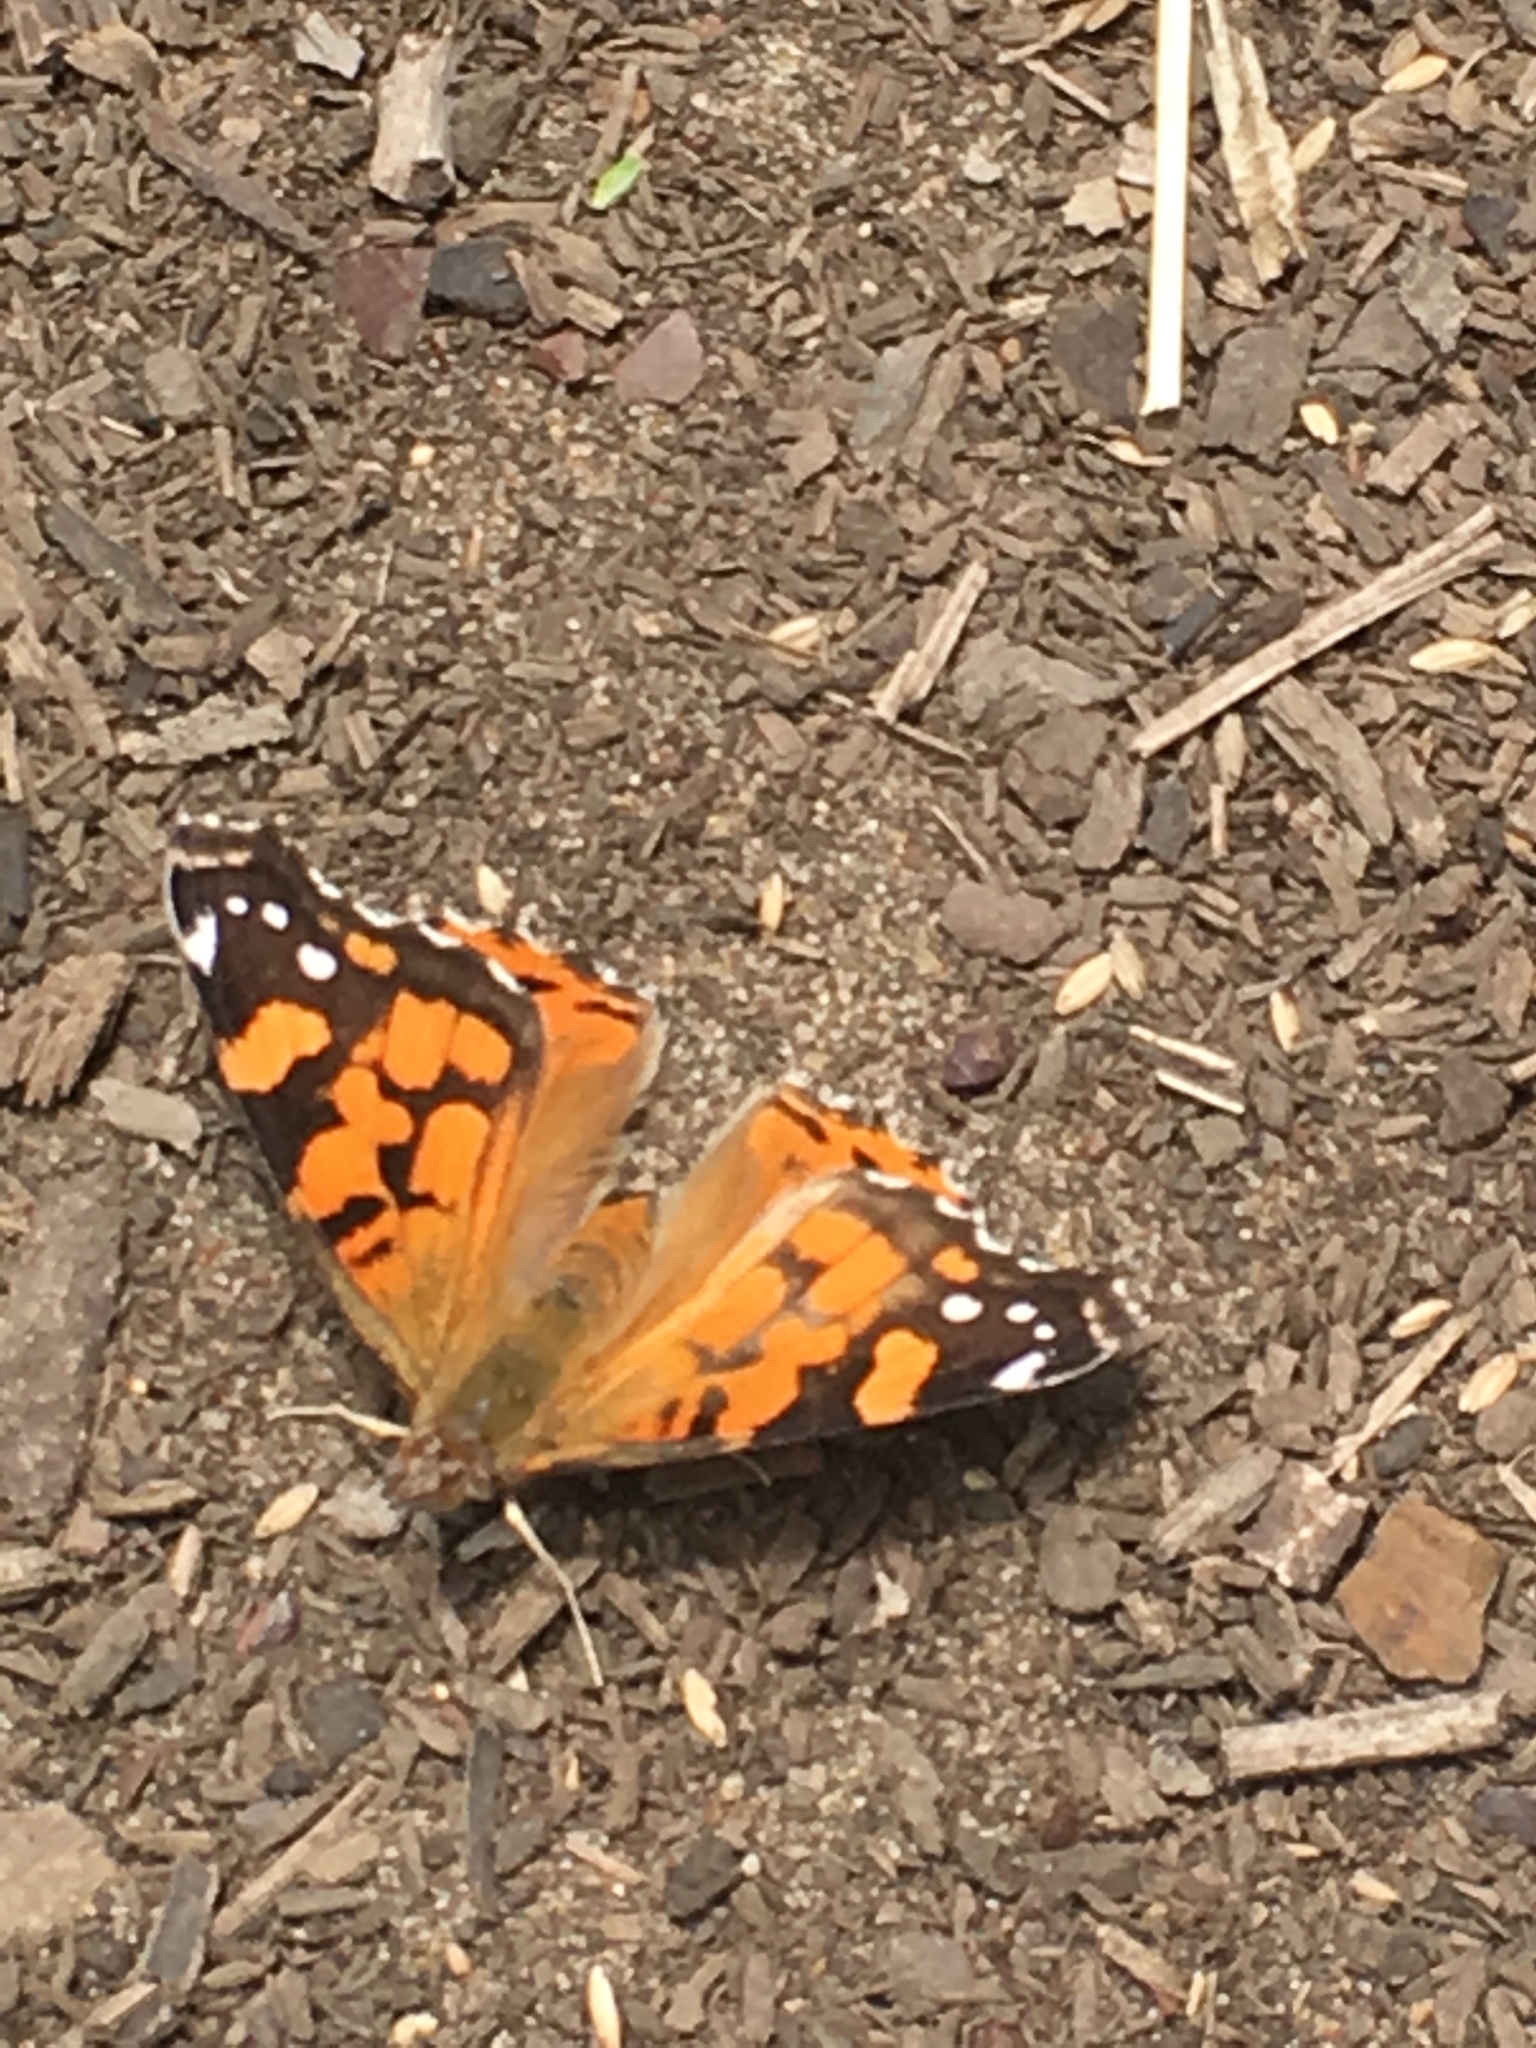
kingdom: Animalia
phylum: Arthropoda
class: Insecta
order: Lepidoptera
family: Nymphalidae
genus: Vanessa
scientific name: Vanessa annabella
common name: West coast lady
